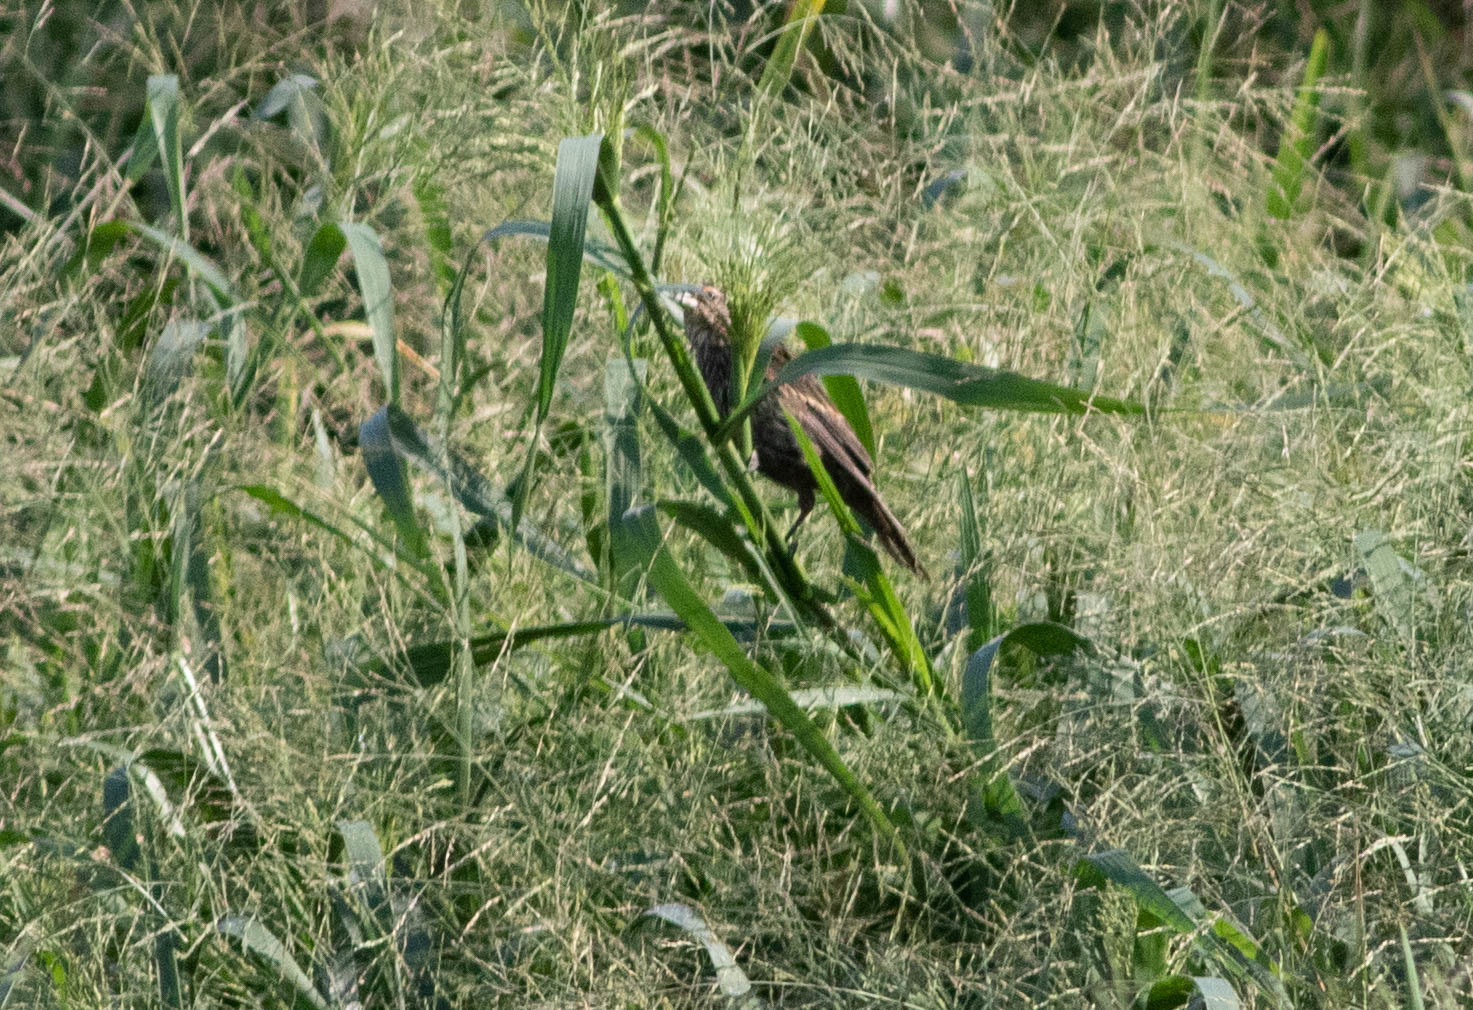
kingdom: Animalia
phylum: Chordata
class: Aves
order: Passeriformes
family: Icteridae
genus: Agelaius
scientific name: Agelaius phoeniceus
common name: Red-winged blackbird
